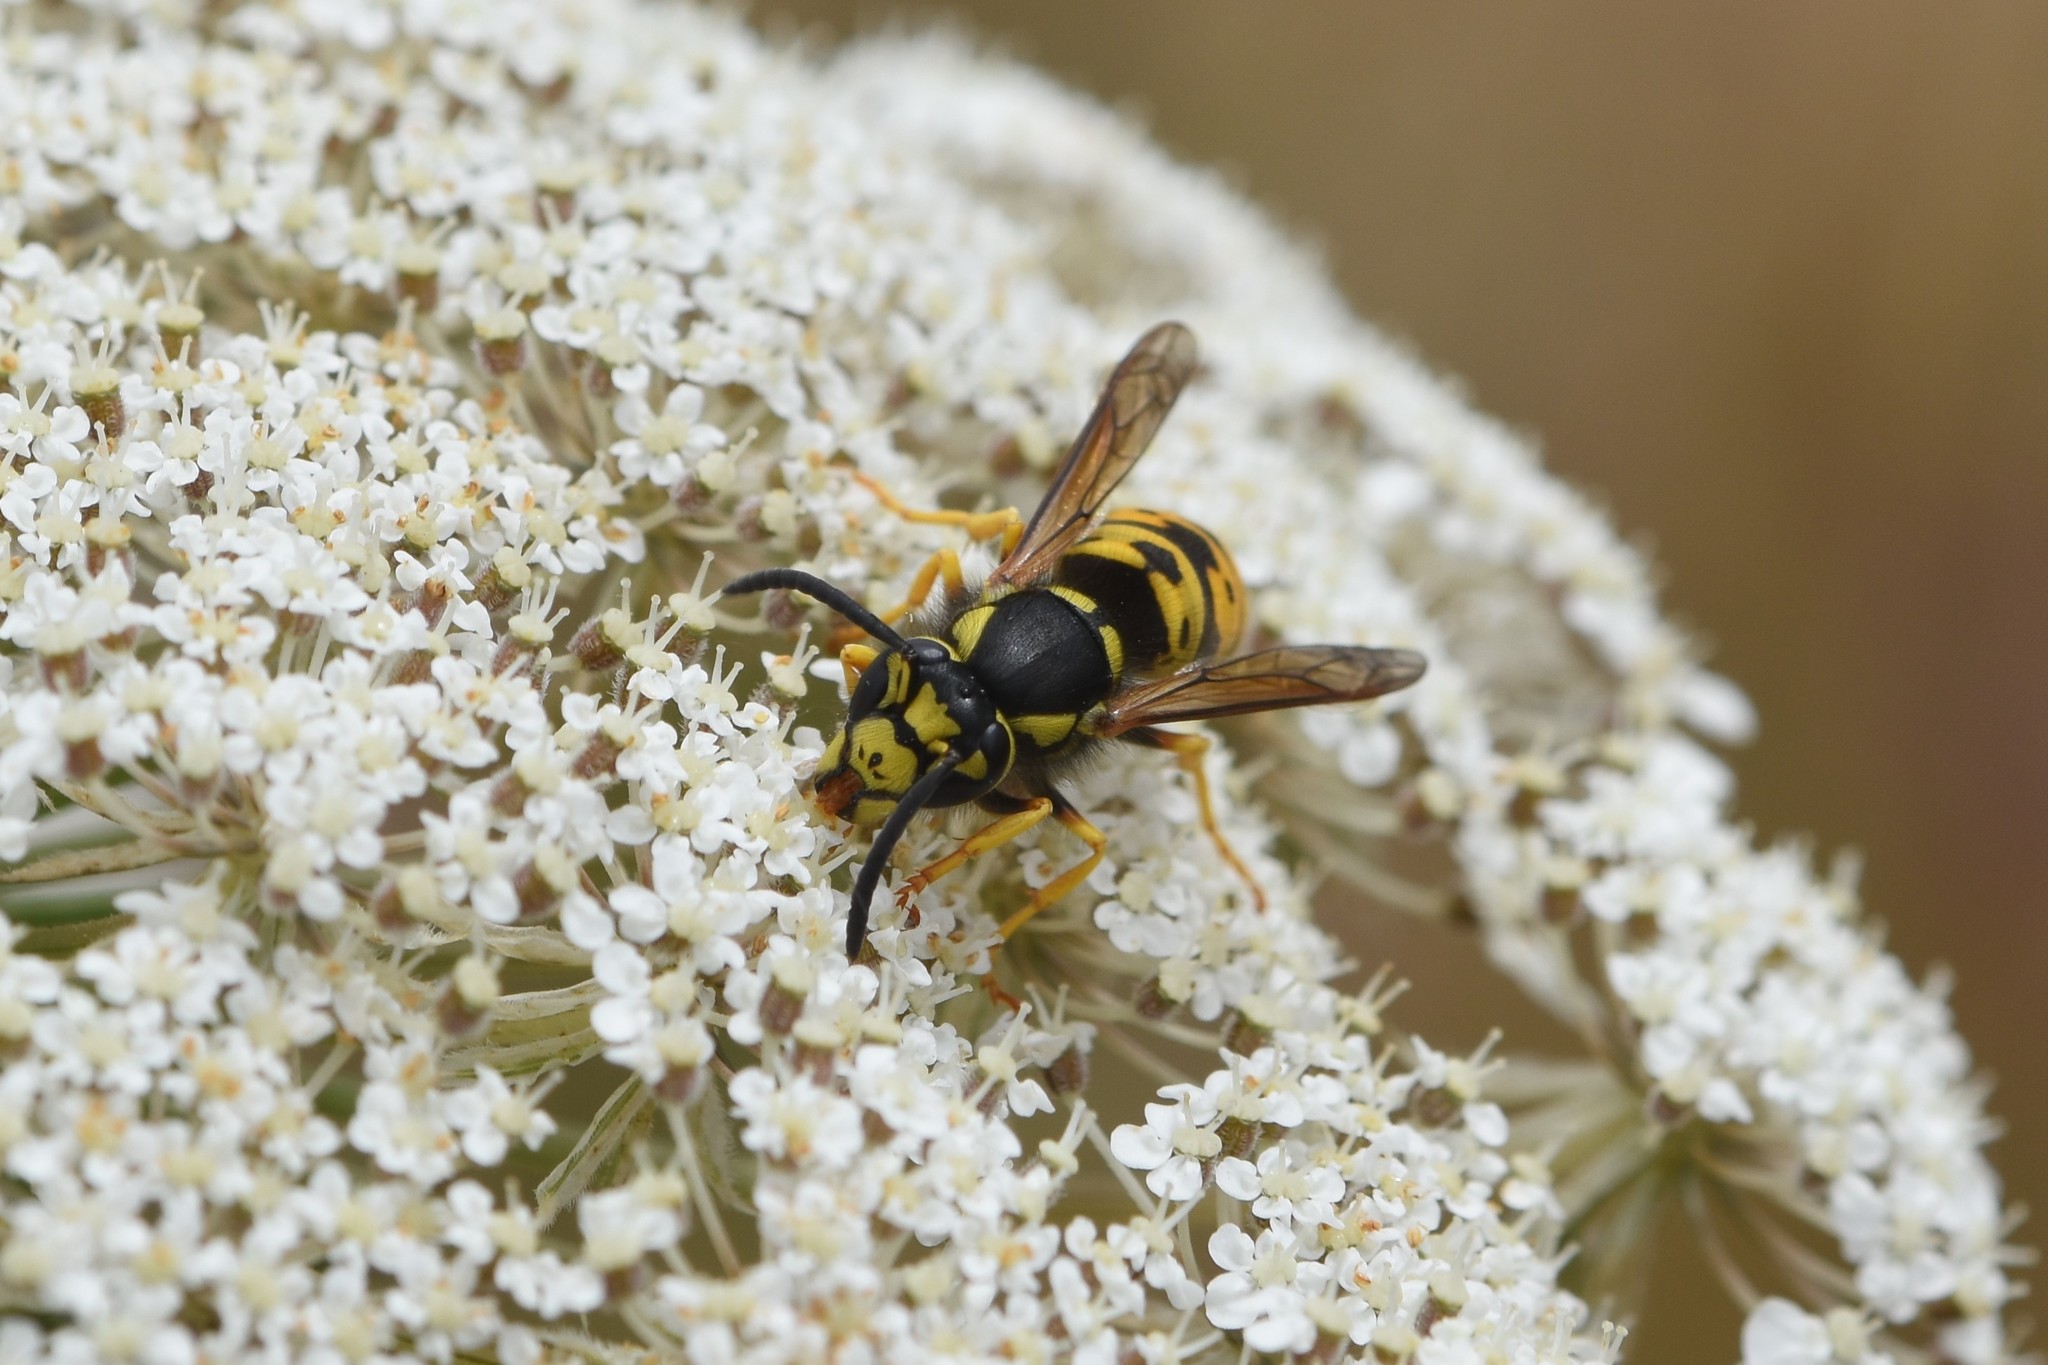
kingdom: Animalia
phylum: Arthropoda
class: Insecta
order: Hymenoptera
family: Vespidae
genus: Vespula
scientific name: Vespula atropilosa
